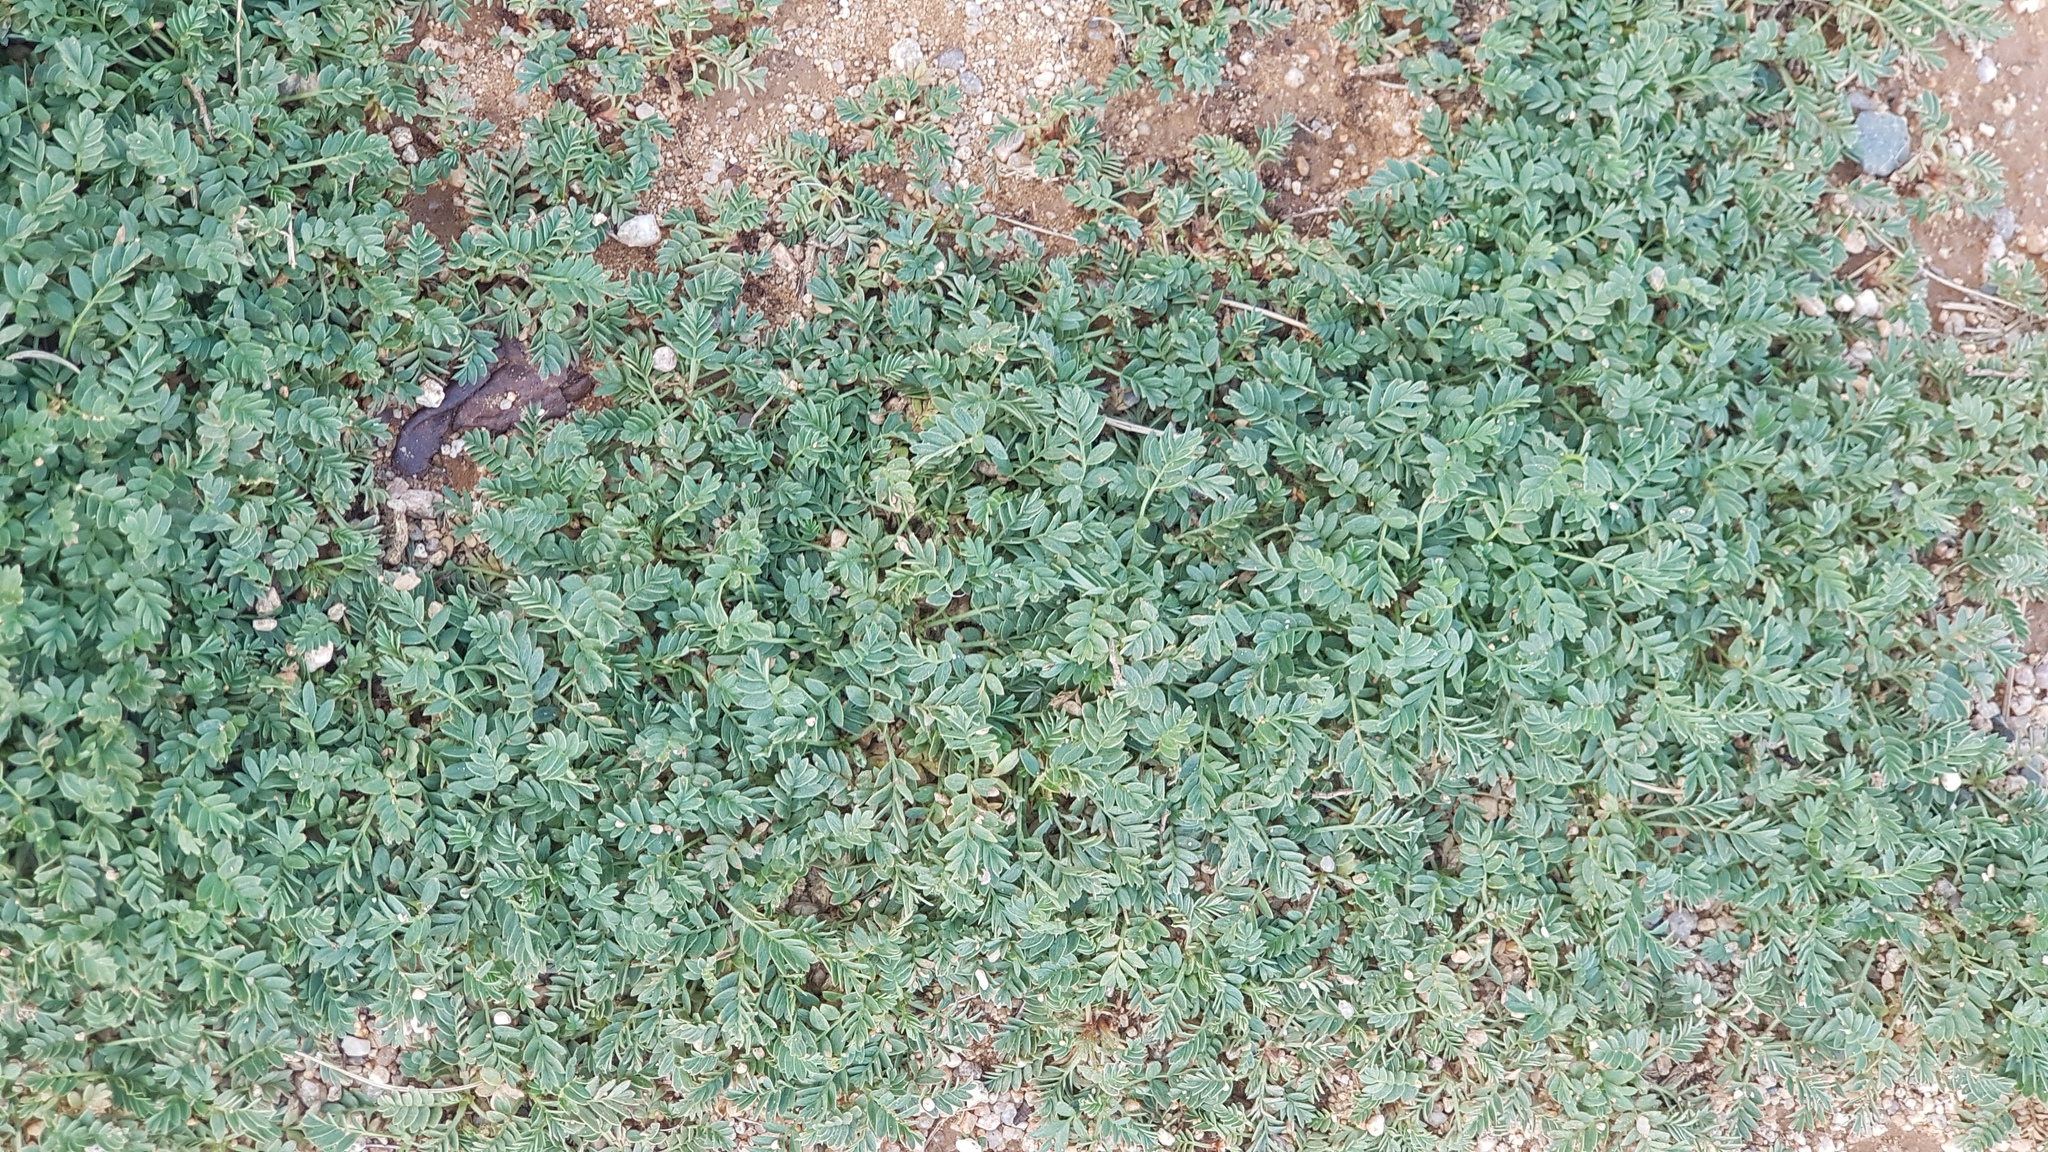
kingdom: Plantae
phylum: Tracheophyta
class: Magnoliopsida
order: Rosales
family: Rosaceae
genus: Sibbaldianthe
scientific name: Sibbaldianthe bifurca
